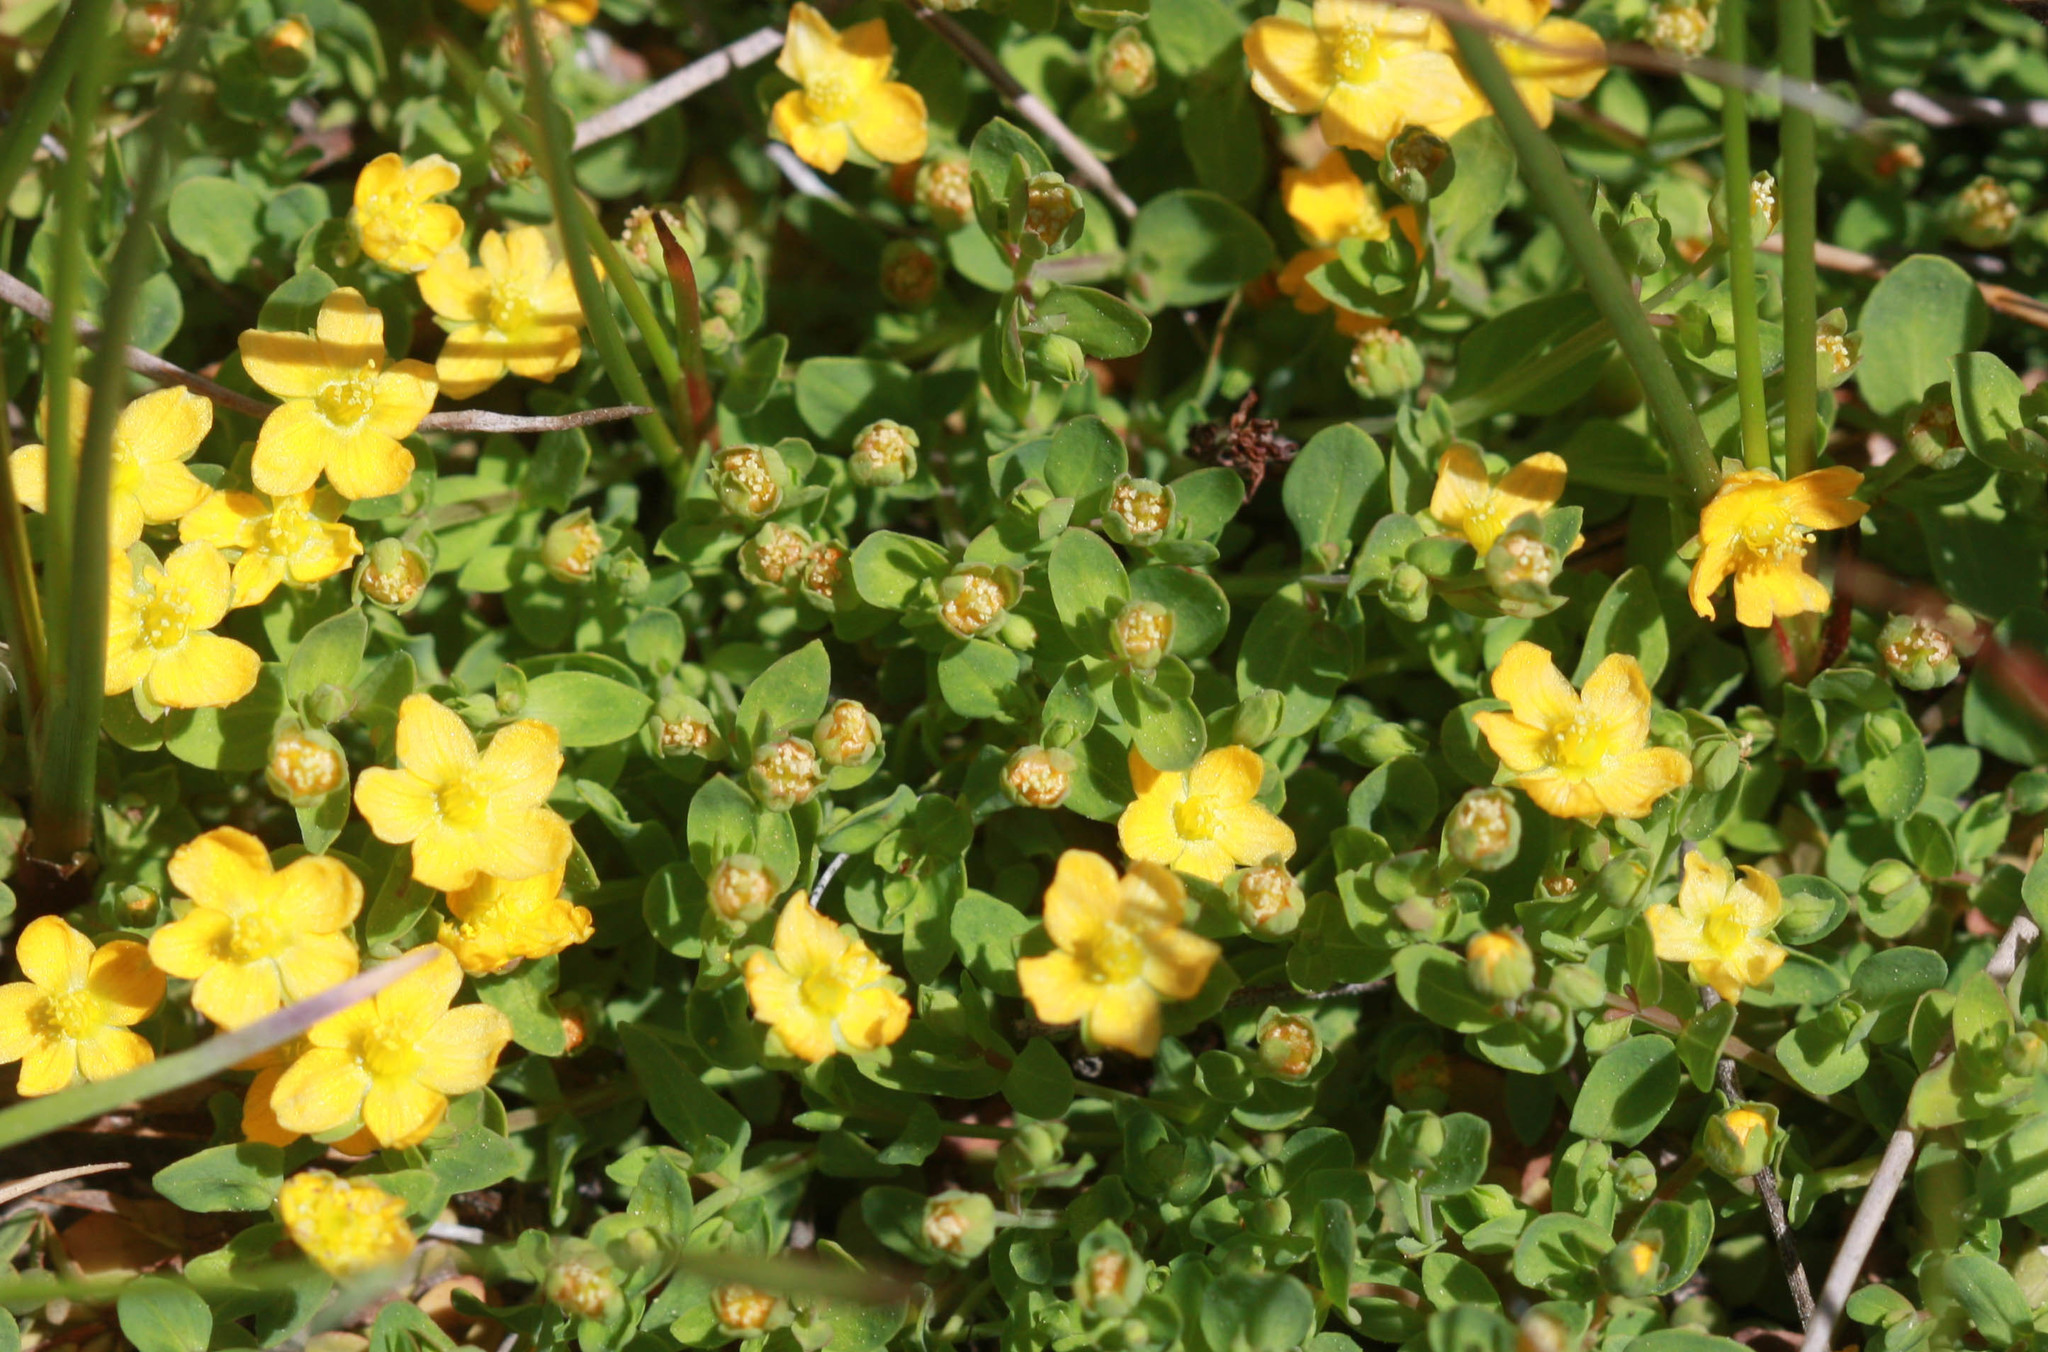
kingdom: Plantae
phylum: Tracheophyta
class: Magnoliopsida
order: Malpighiales
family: Hypericaceae
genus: Hypericum
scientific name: Hypericum anagalloides
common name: Bog st. john's-wort
